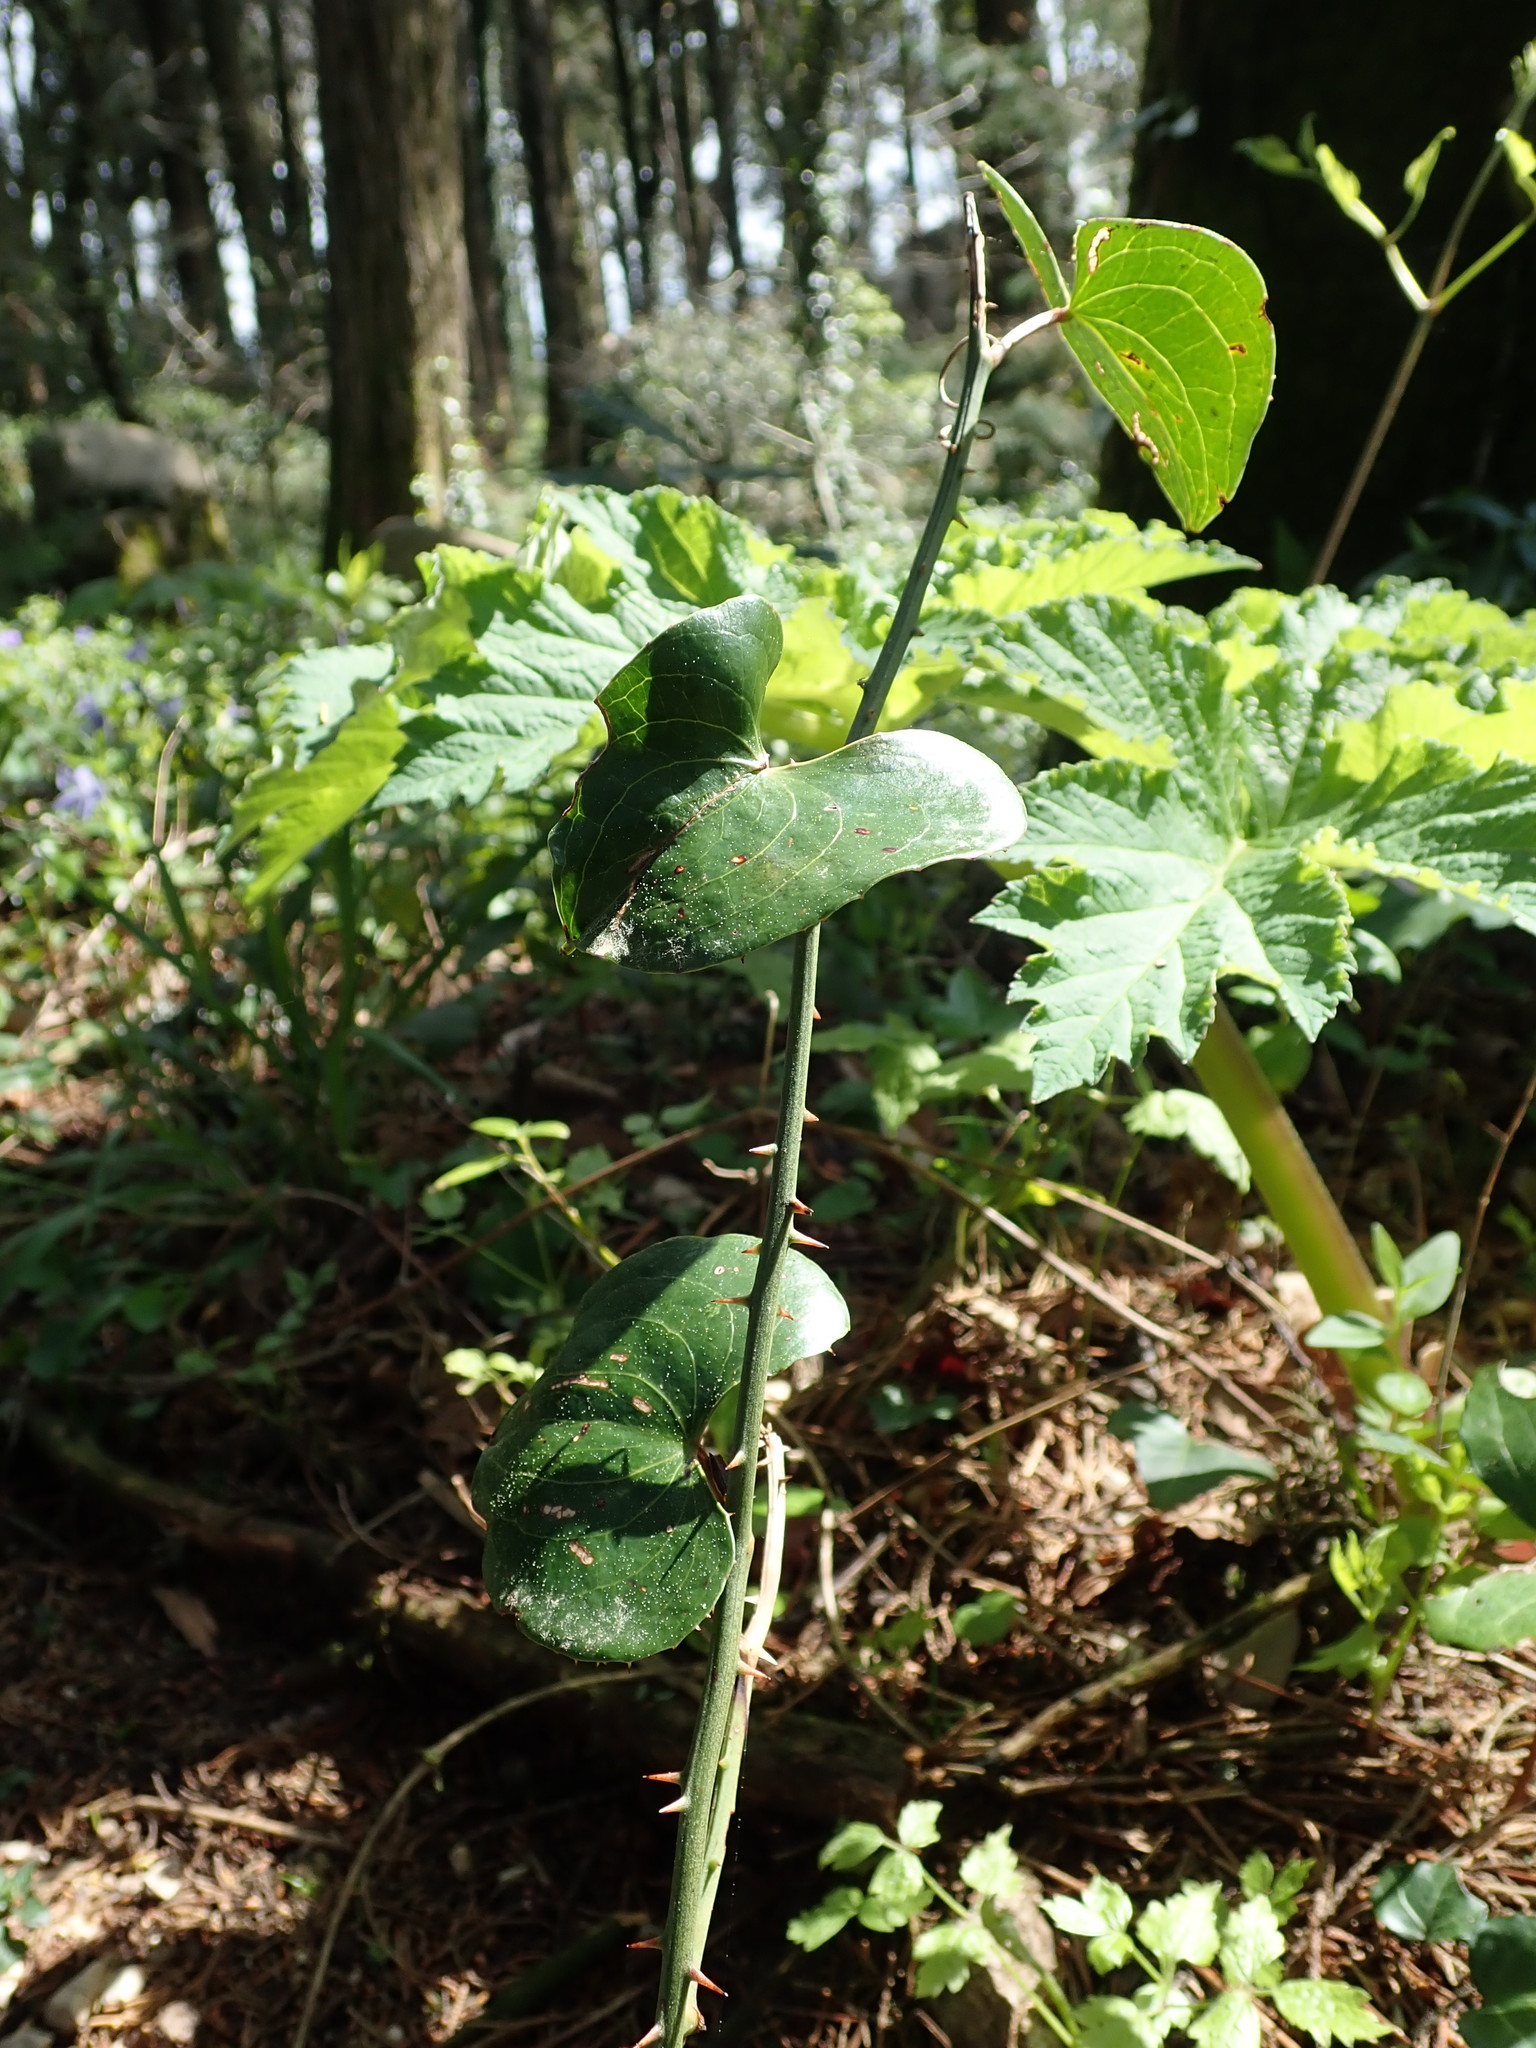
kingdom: Plantae
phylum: Tracheophyta
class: Liliopsida
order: Liliales
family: Smilacaceae
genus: Smilax
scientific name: Smilax aspera
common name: Common smilax
